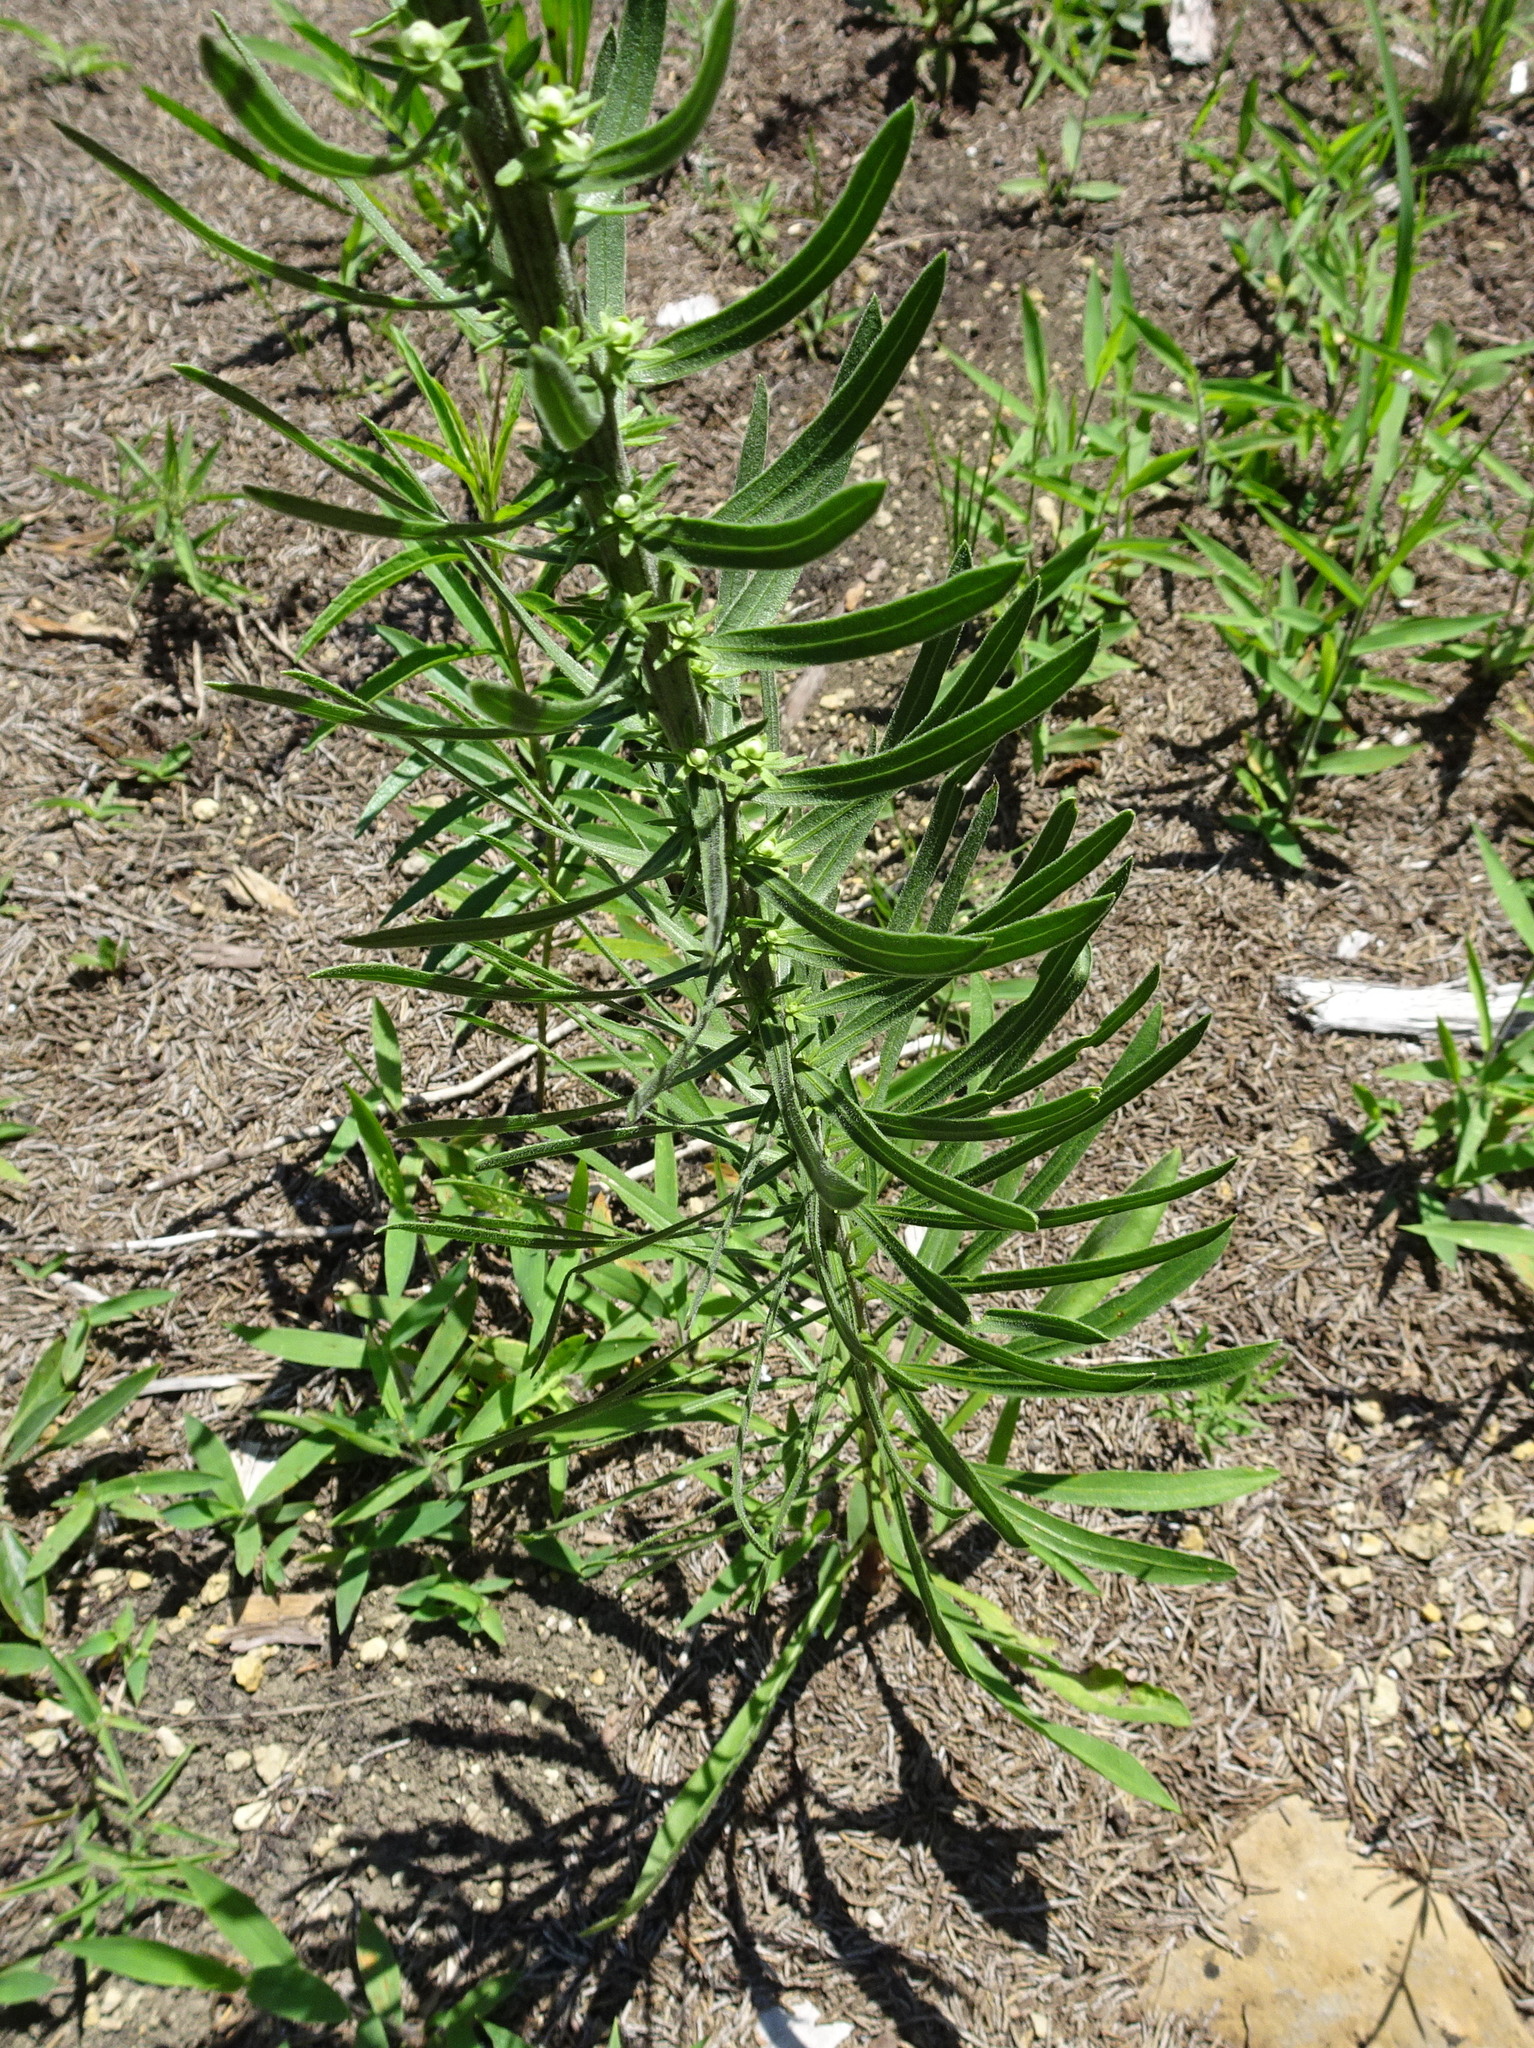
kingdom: Plantae
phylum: Tracheophyta
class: Magnoliopsida
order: Asterales
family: Asteraceae
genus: Liatris
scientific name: Liatris aspera
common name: Lacerate blazing-star
